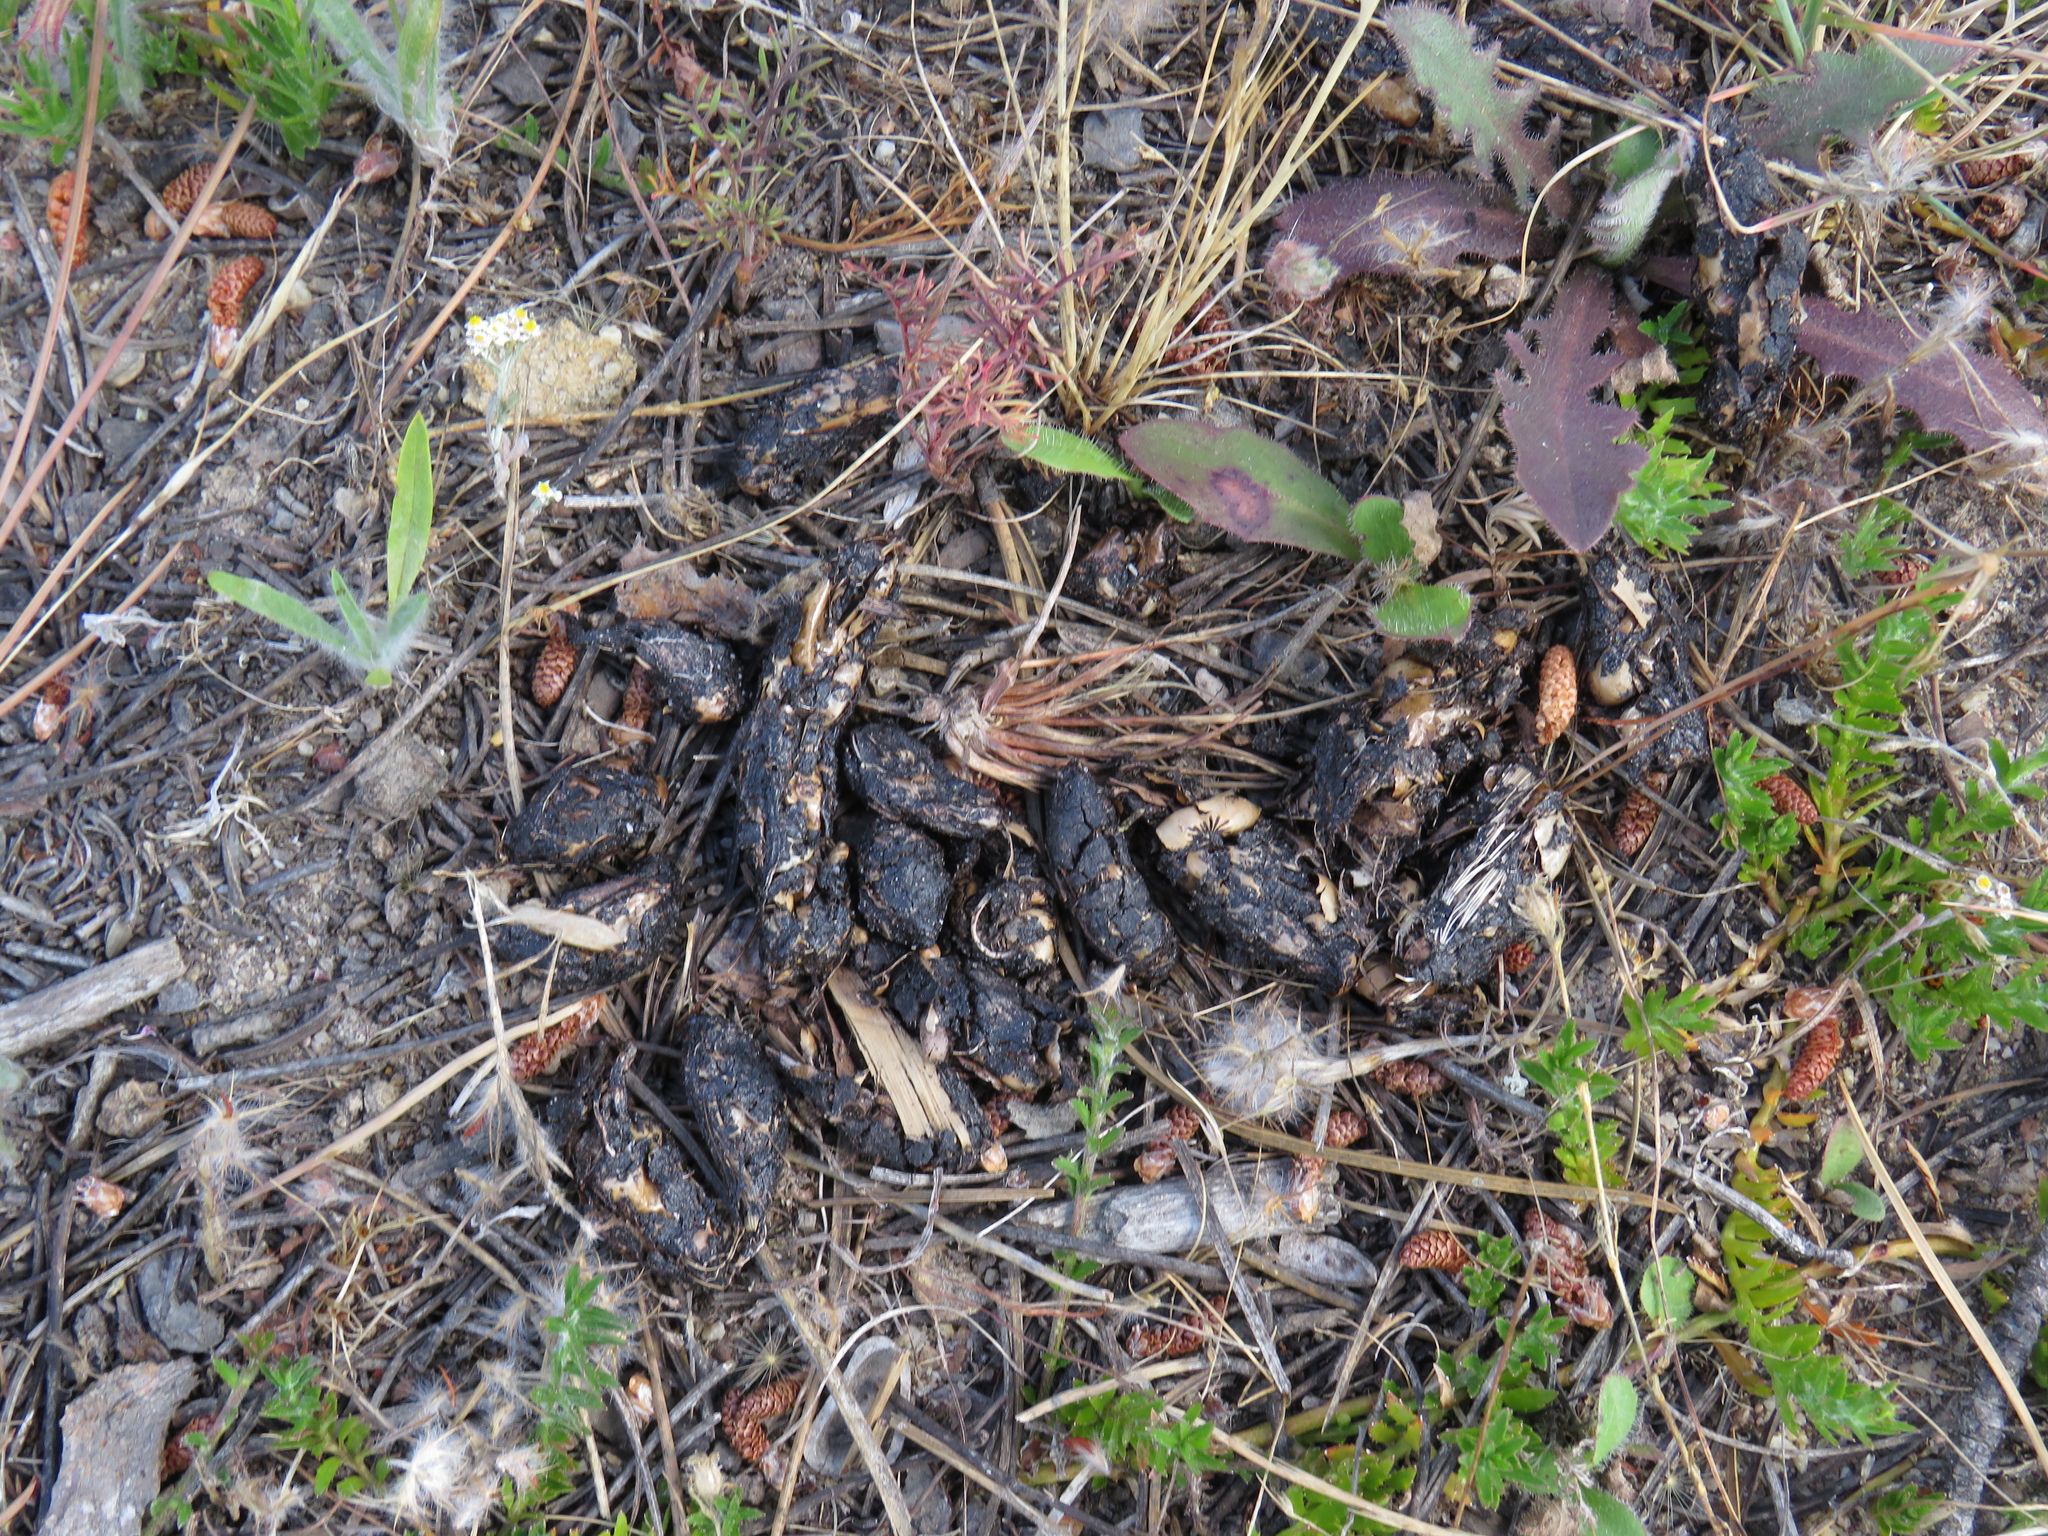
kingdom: Animalia
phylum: Chordata
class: Mammalia
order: Rodentia
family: Hystricidae
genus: Hystrix
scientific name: Hystrix africaeaustralis
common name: Cape porcupine
